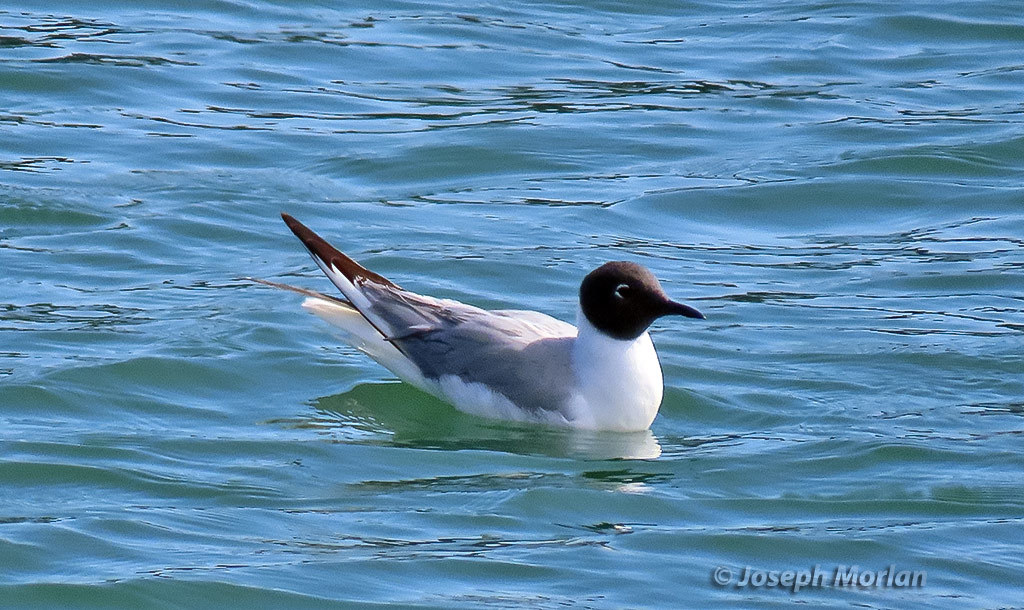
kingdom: Animalia
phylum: Chordata
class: Aves
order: Charadriiformes
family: Laridae
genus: Chroicocephalus
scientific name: Chroicocephalus philadelphia
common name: Bonaparte's gull
